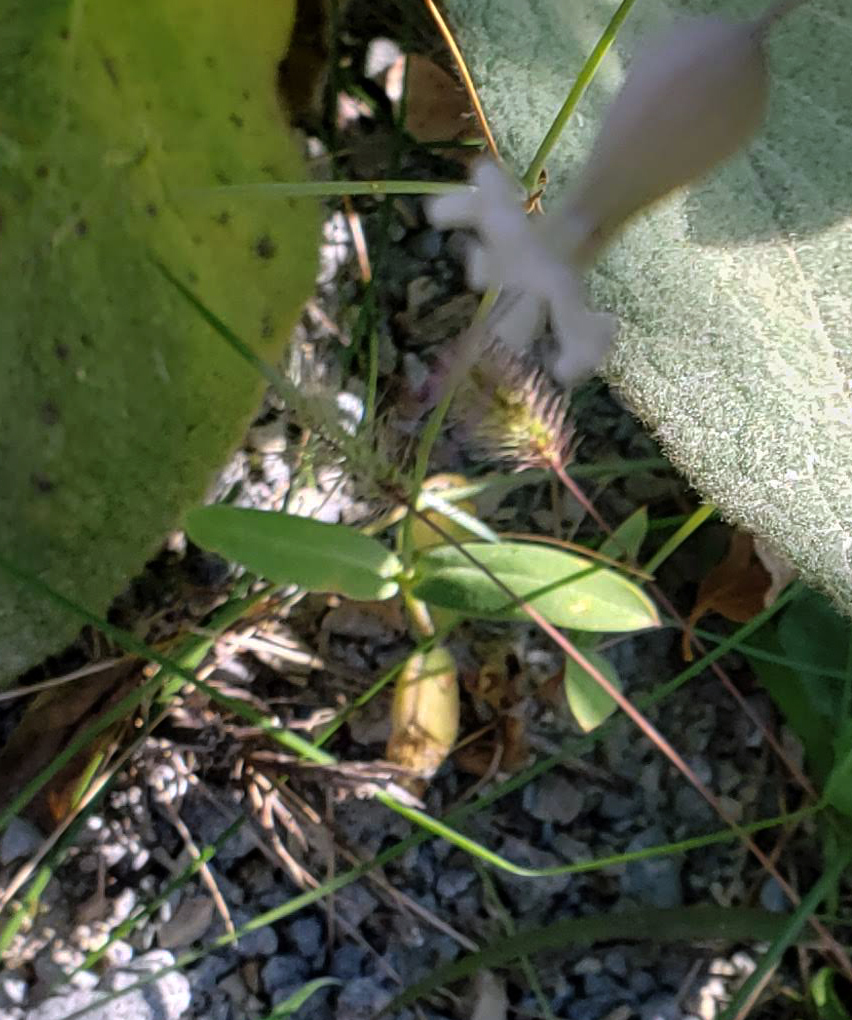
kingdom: Plantae
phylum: Tracheophyta
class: Magnoliopsida
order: Caryophyllales
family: Caryophyllaceae
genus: Silene
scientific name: Silene vulgaris
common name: Bladder campion
